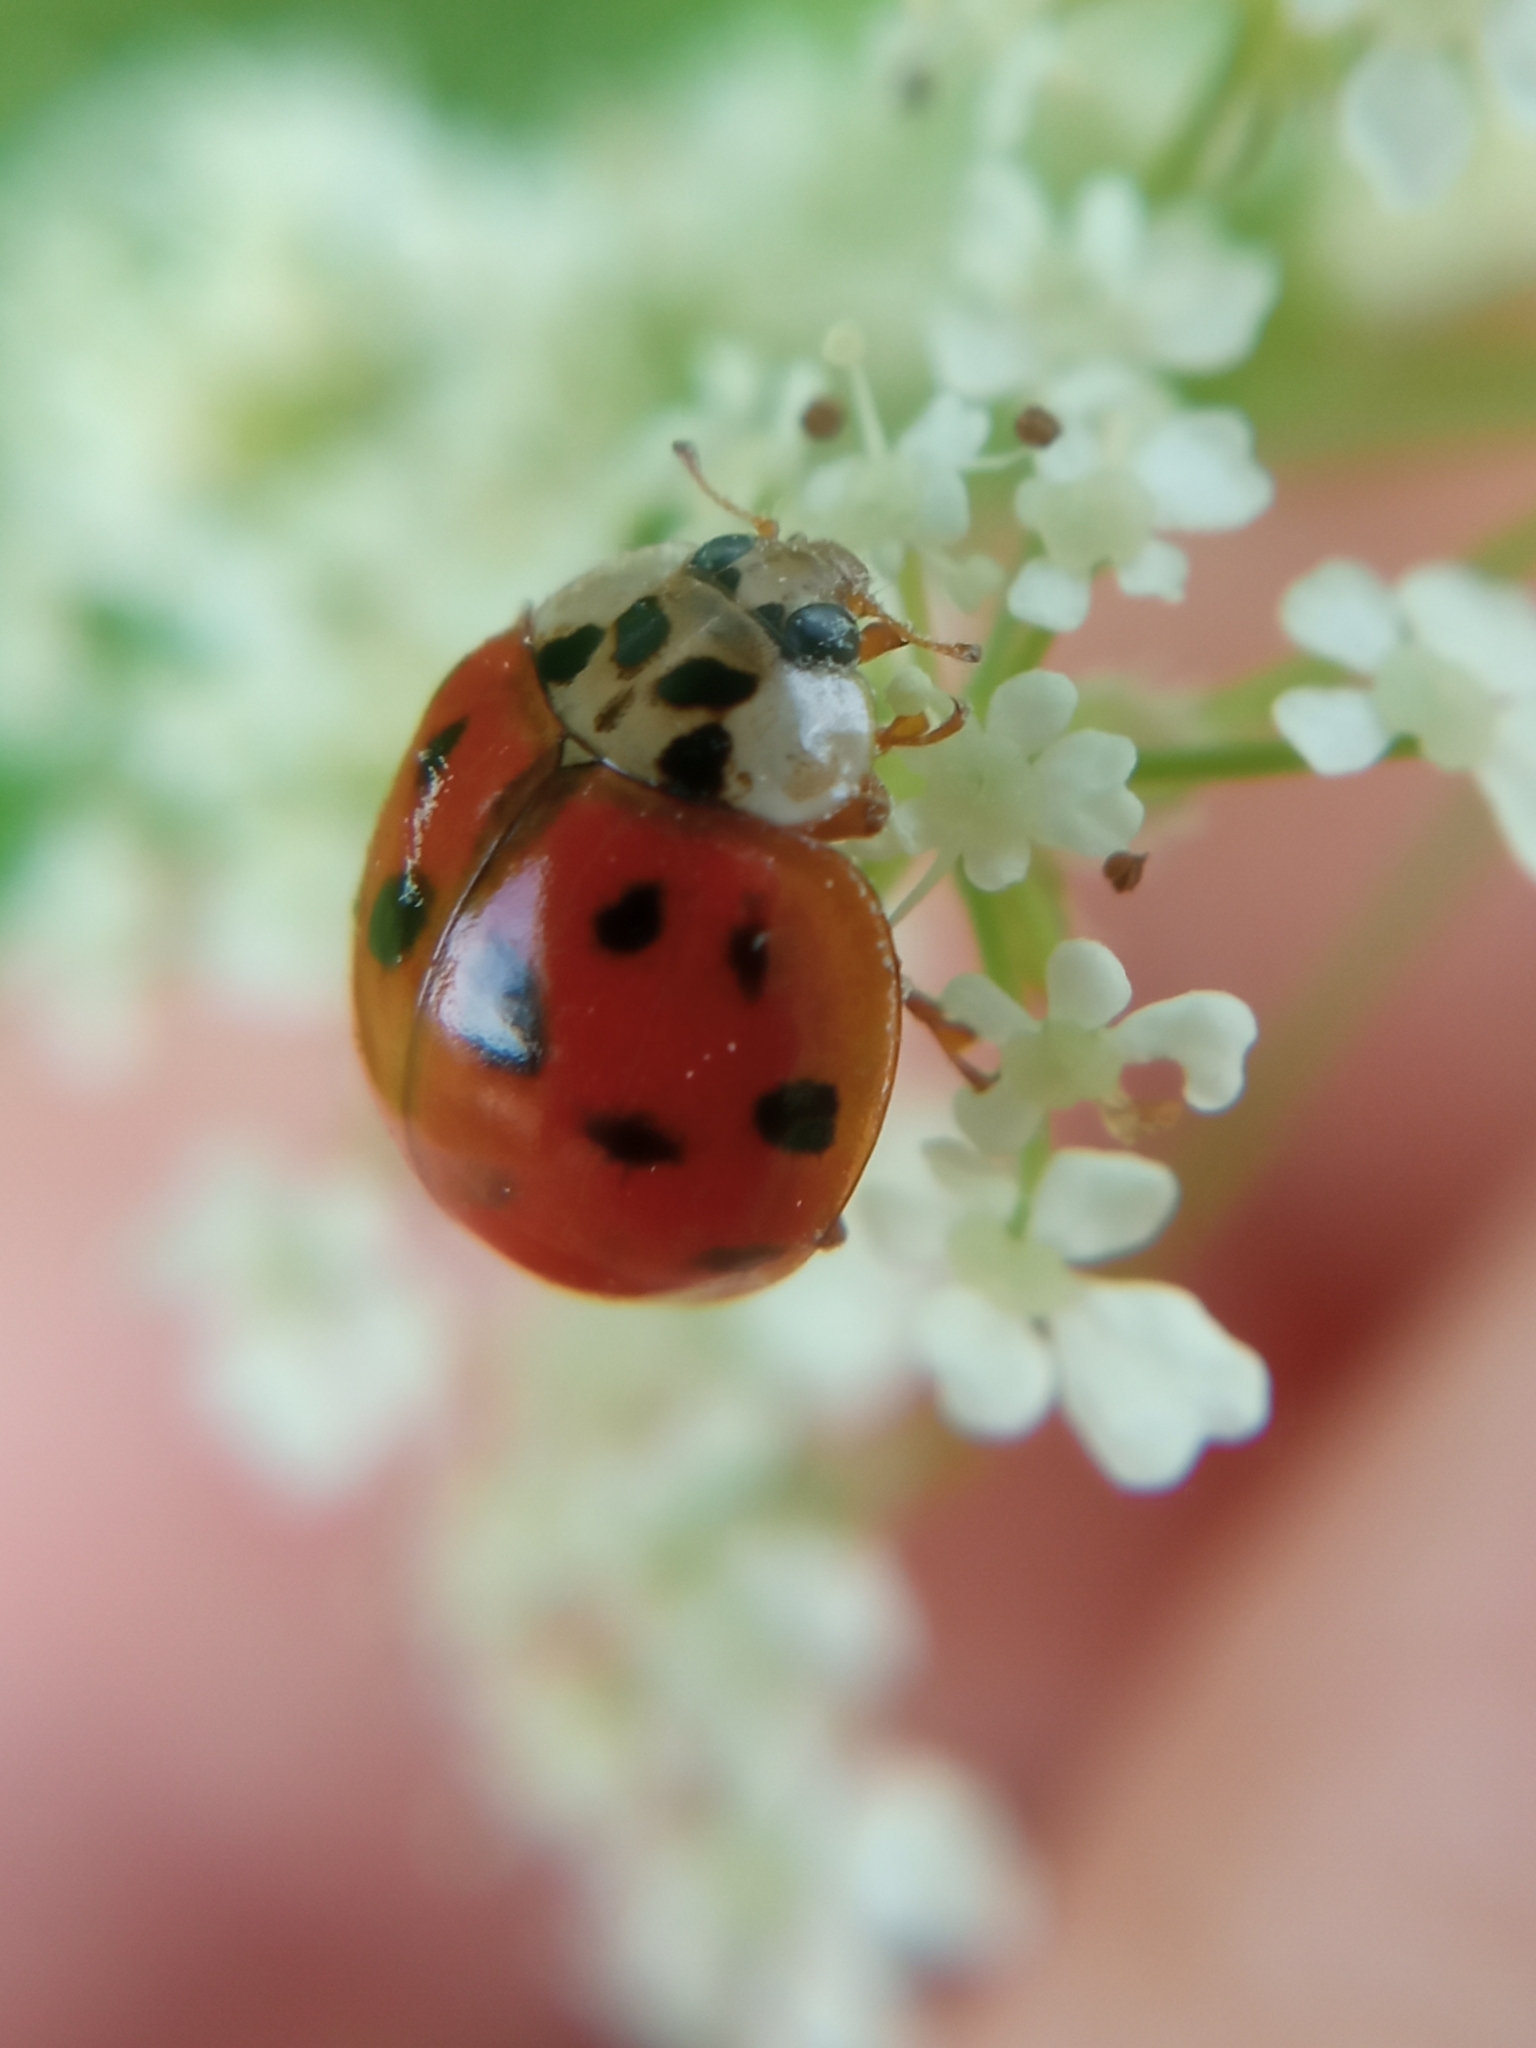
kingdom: Animalia
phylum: Arthropoda
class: Insecta
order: Coleoptera
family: Coccinellidae
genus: Harmonia
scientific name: Harmonia axyridis
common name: Harlequin ladybird
